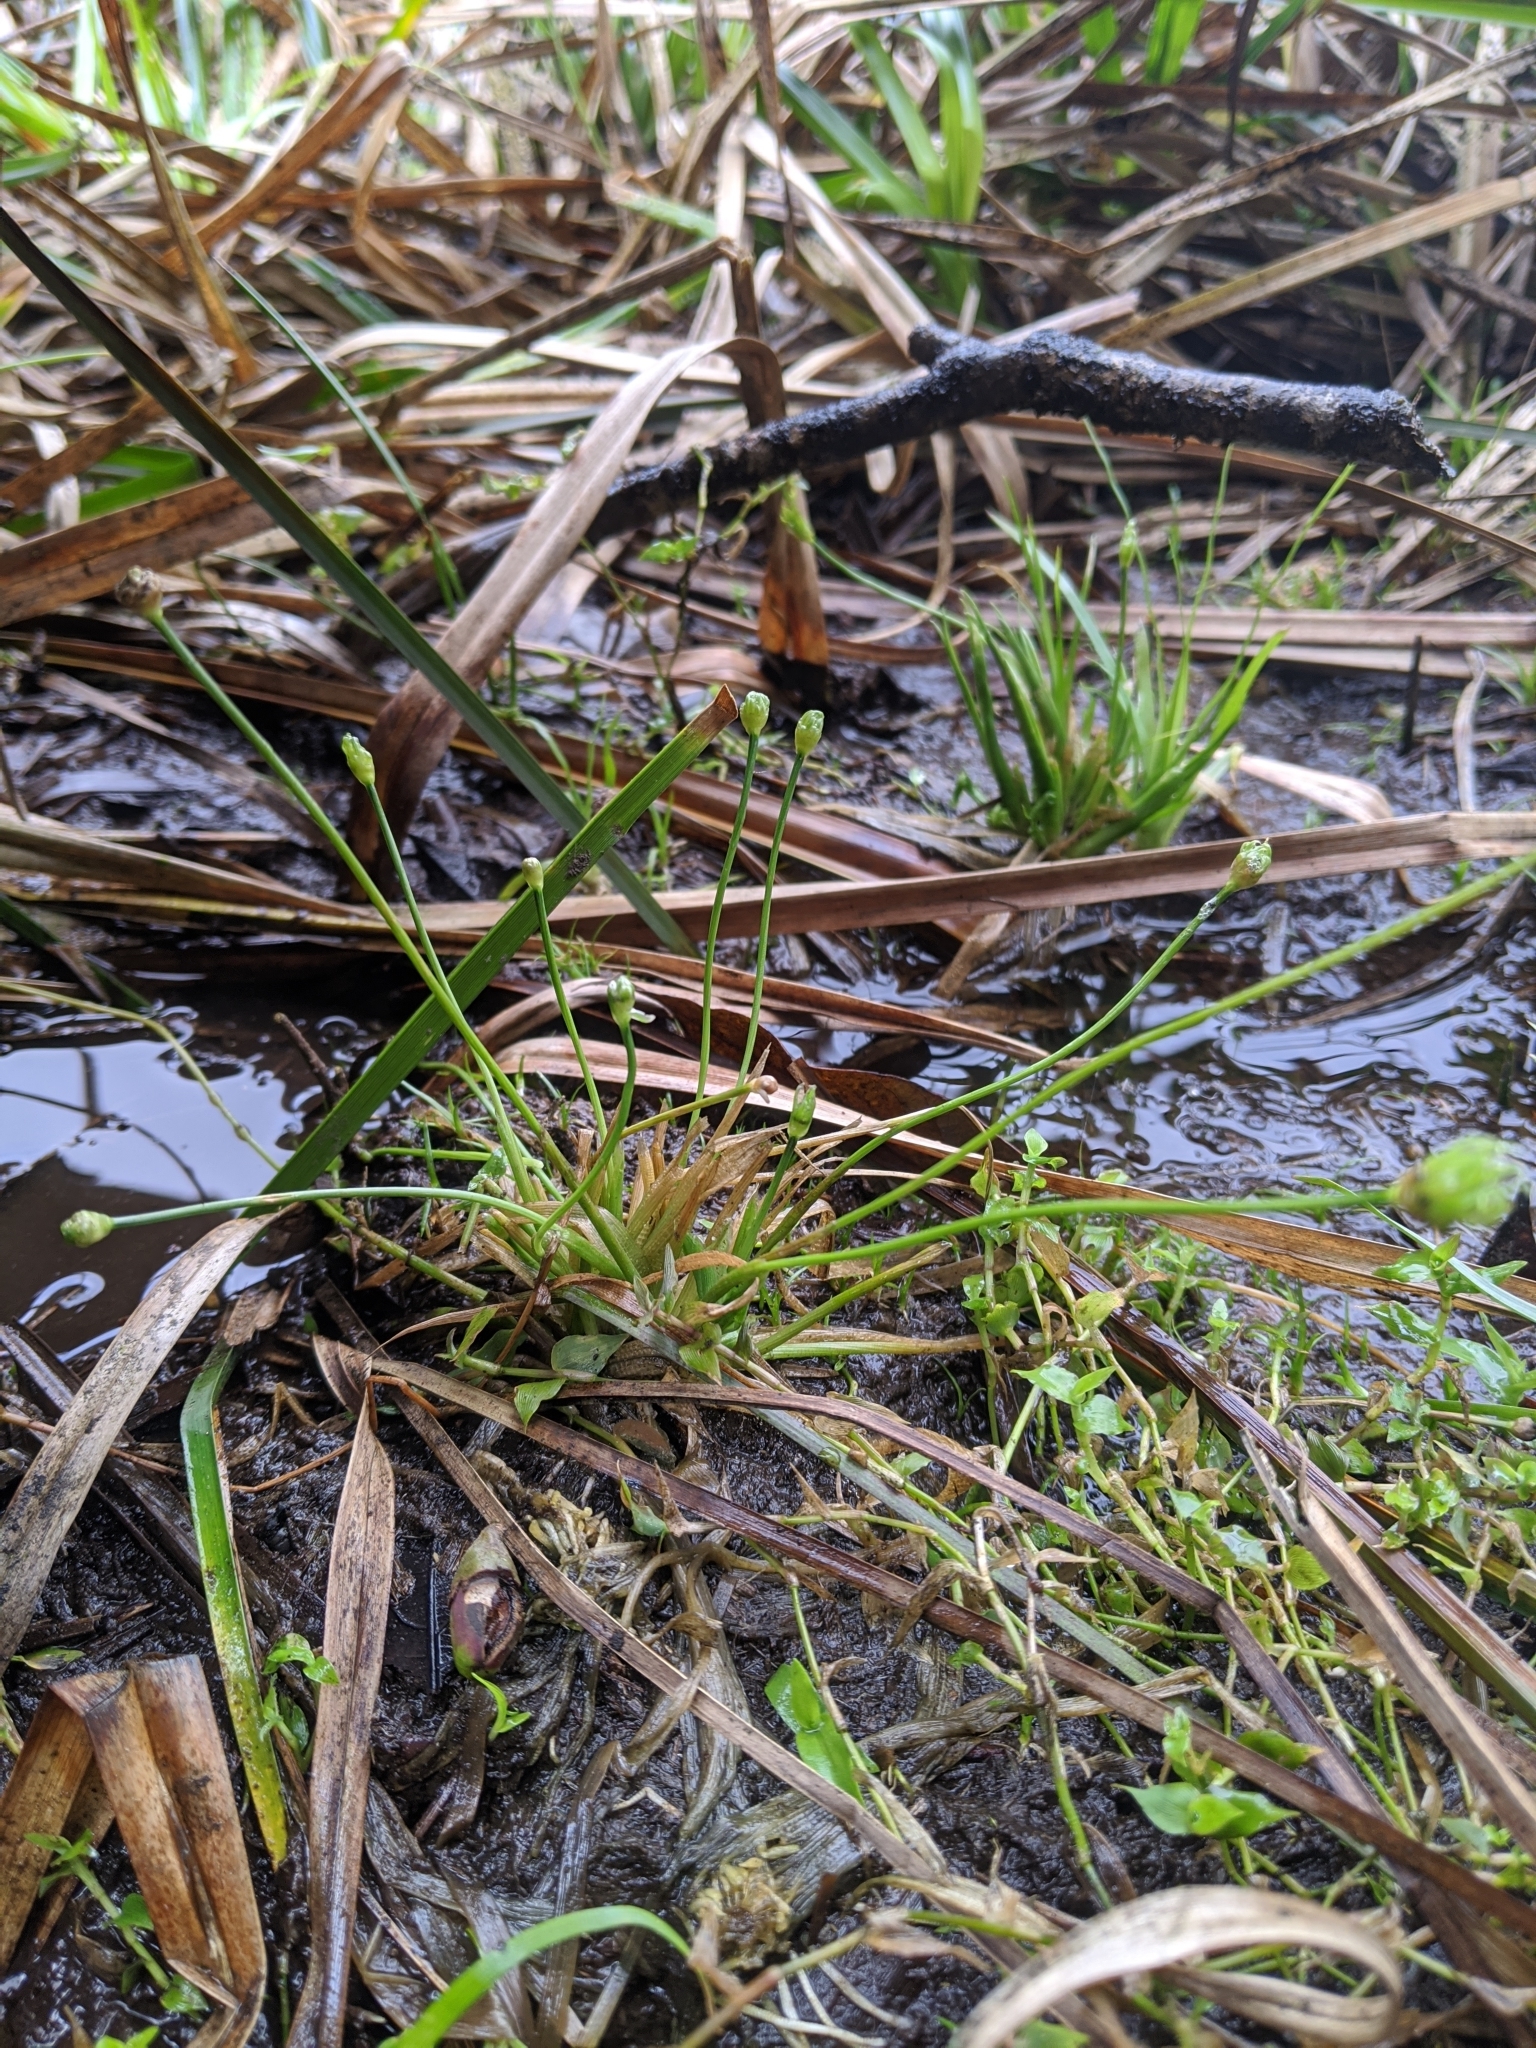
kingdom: Plantae
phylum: Tracheophyta
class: Liliopsida
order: Poales
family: Eriocaulaceae
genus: Eriocaulon
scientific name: Eriocaulon buergerianum
